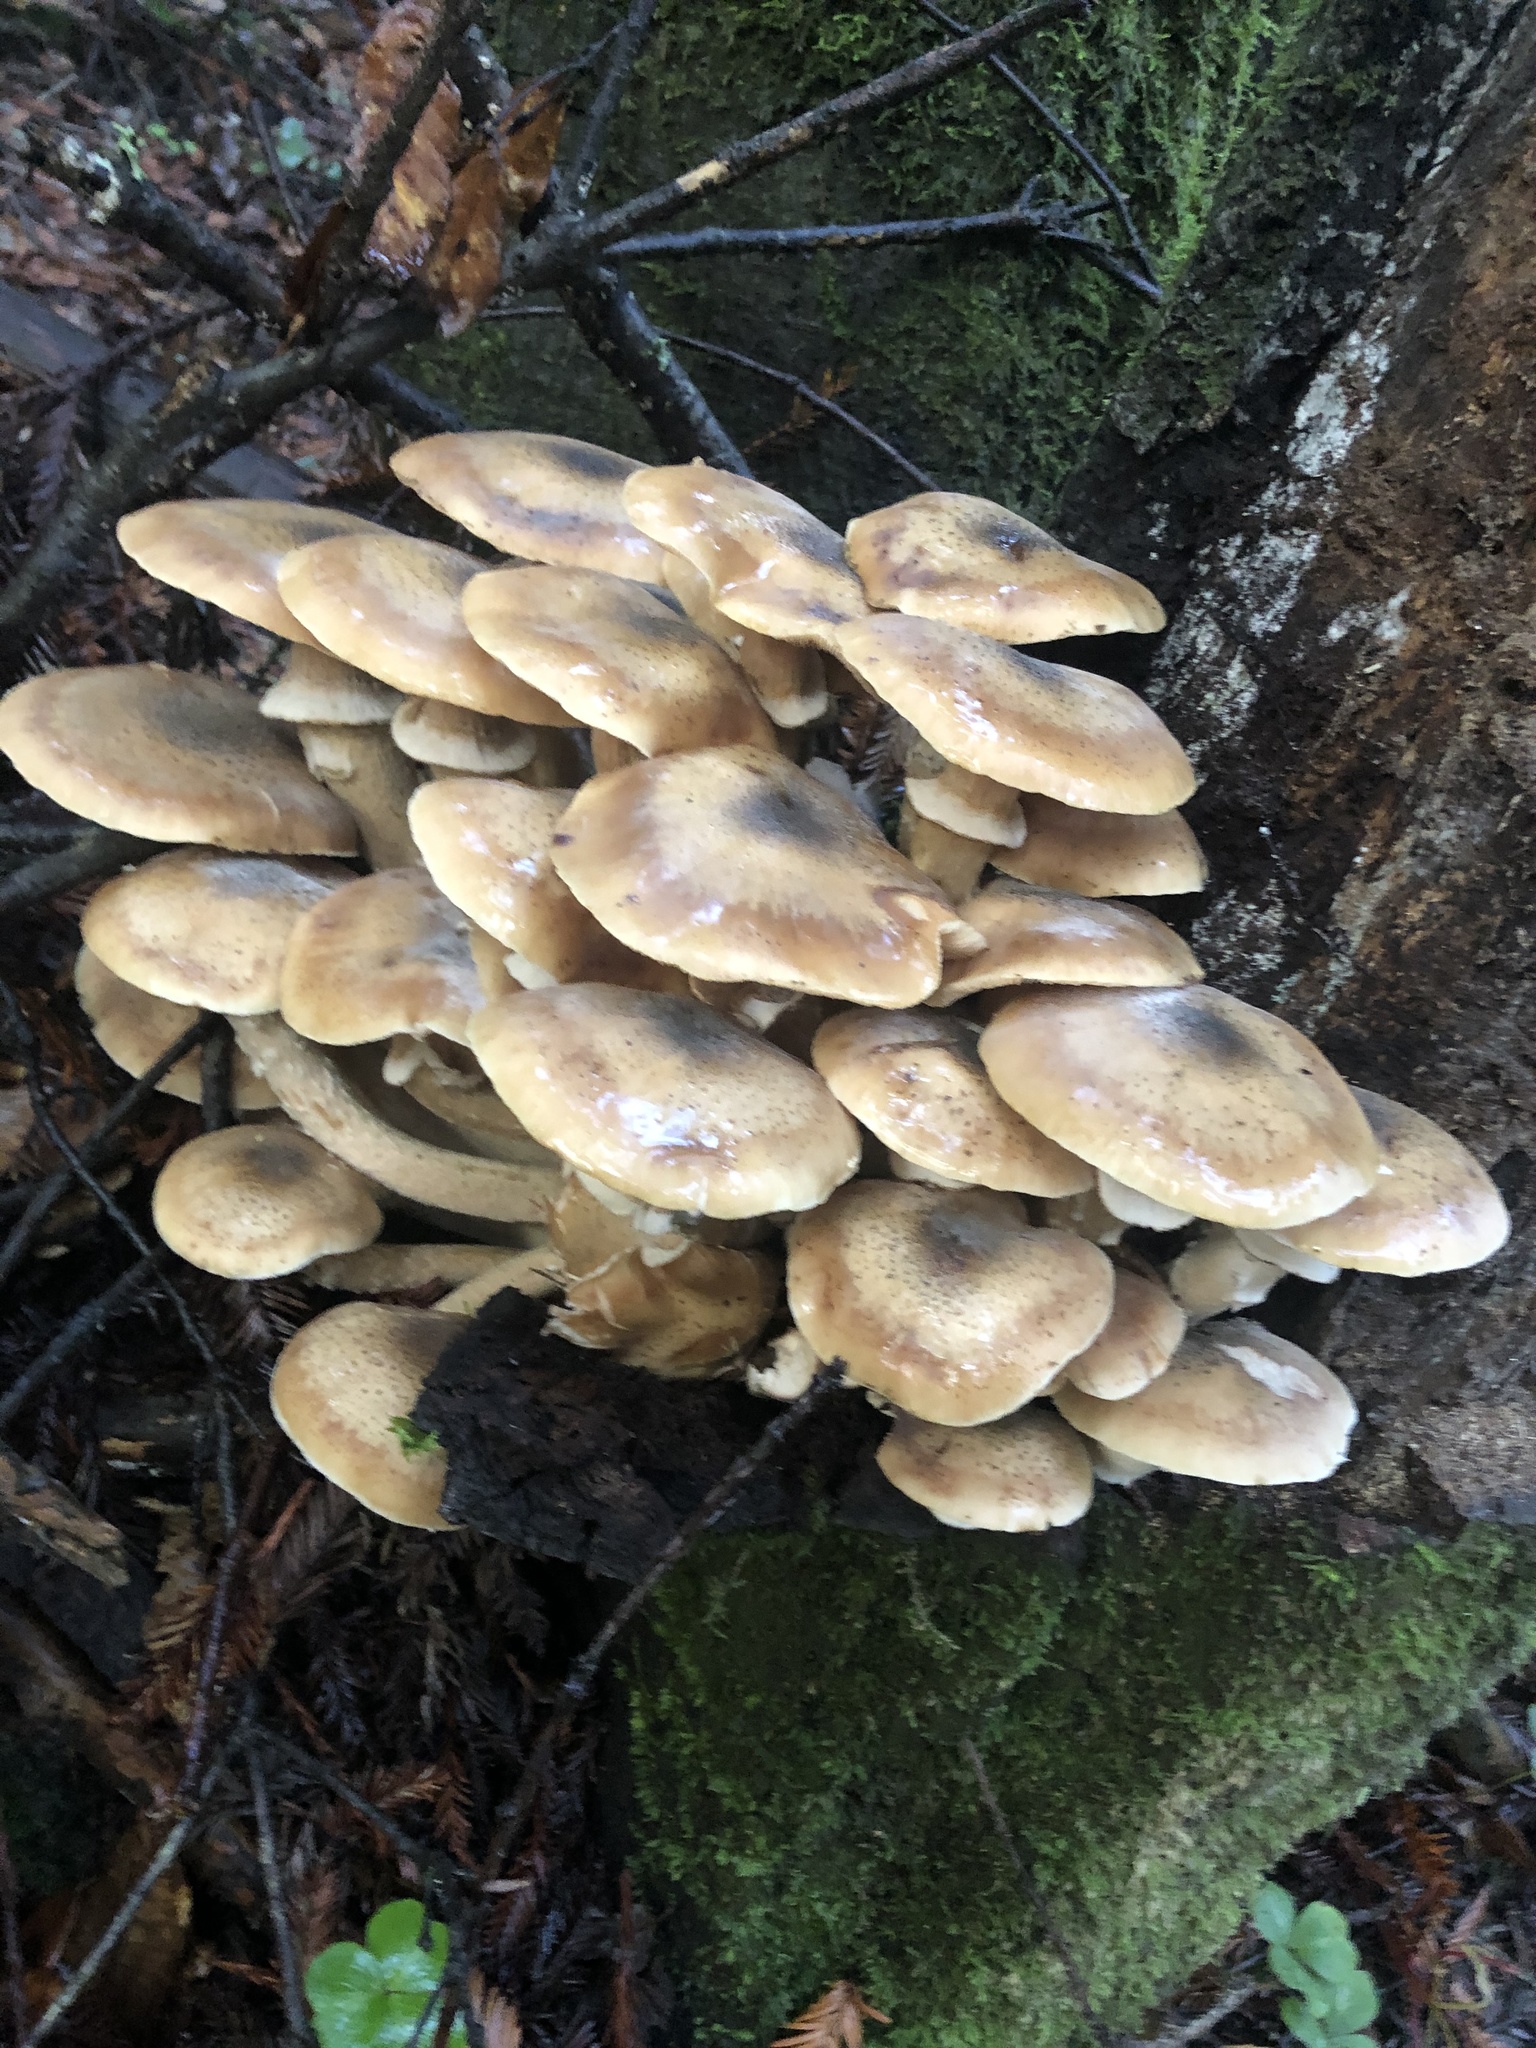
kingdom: Fungi
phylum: Basidiomycota
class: Agaricomycetes
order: Agaricales
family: Physalacriaceae
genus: Armillaria
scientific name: Armillaria mellea
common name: Honey fungus
